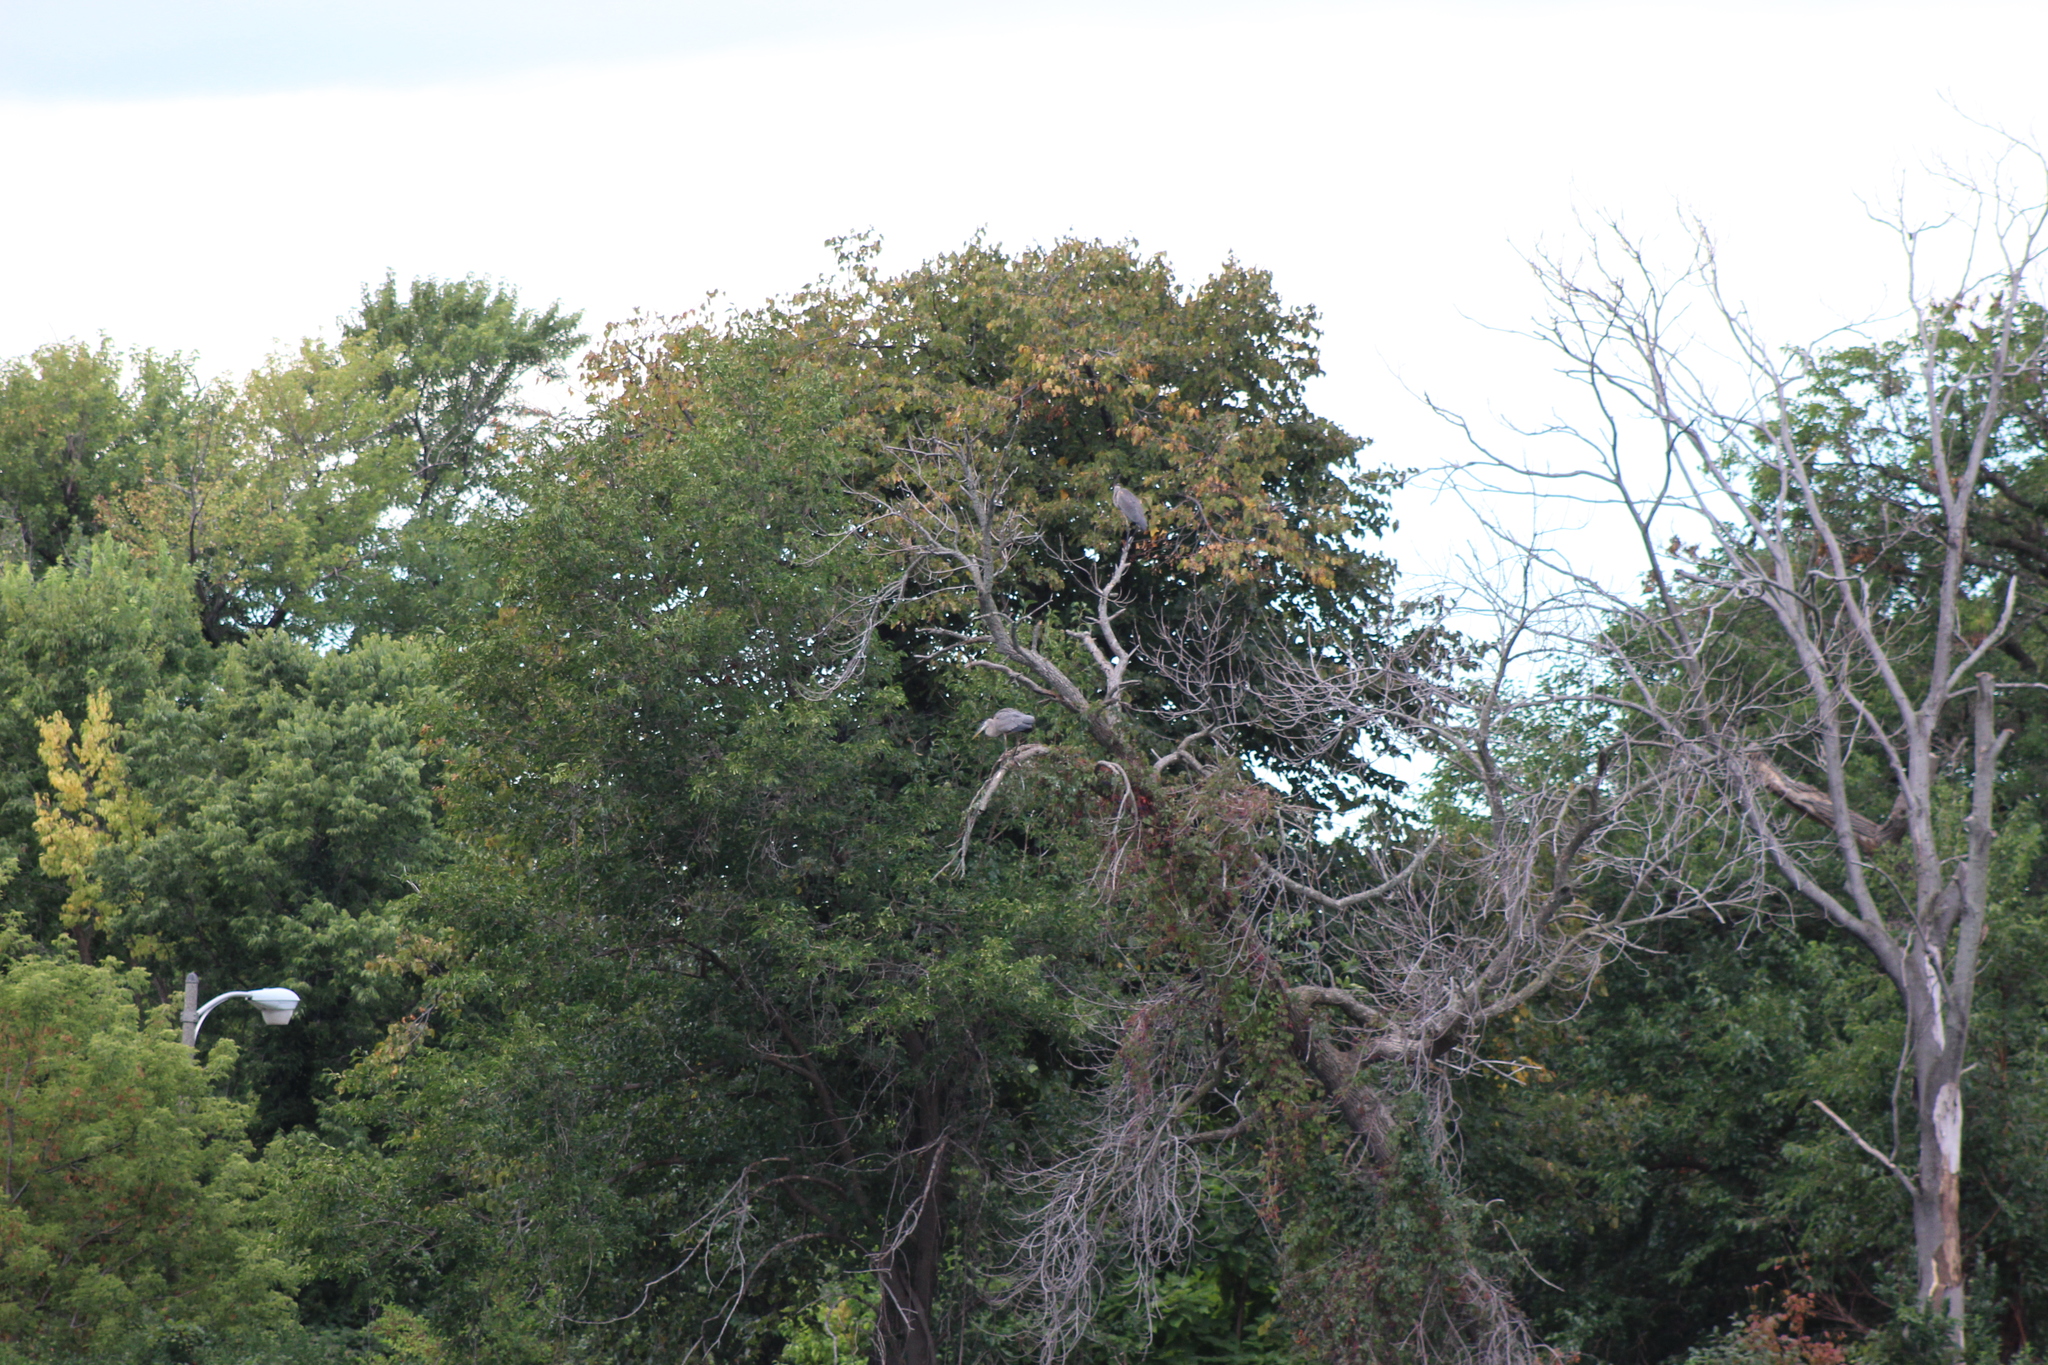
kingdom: Animalia
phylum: Chordata
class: Aves
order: Pelecaniformes
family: Ardeidae
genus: Ardea
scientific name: Ardea herodias
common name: Great blue heron
